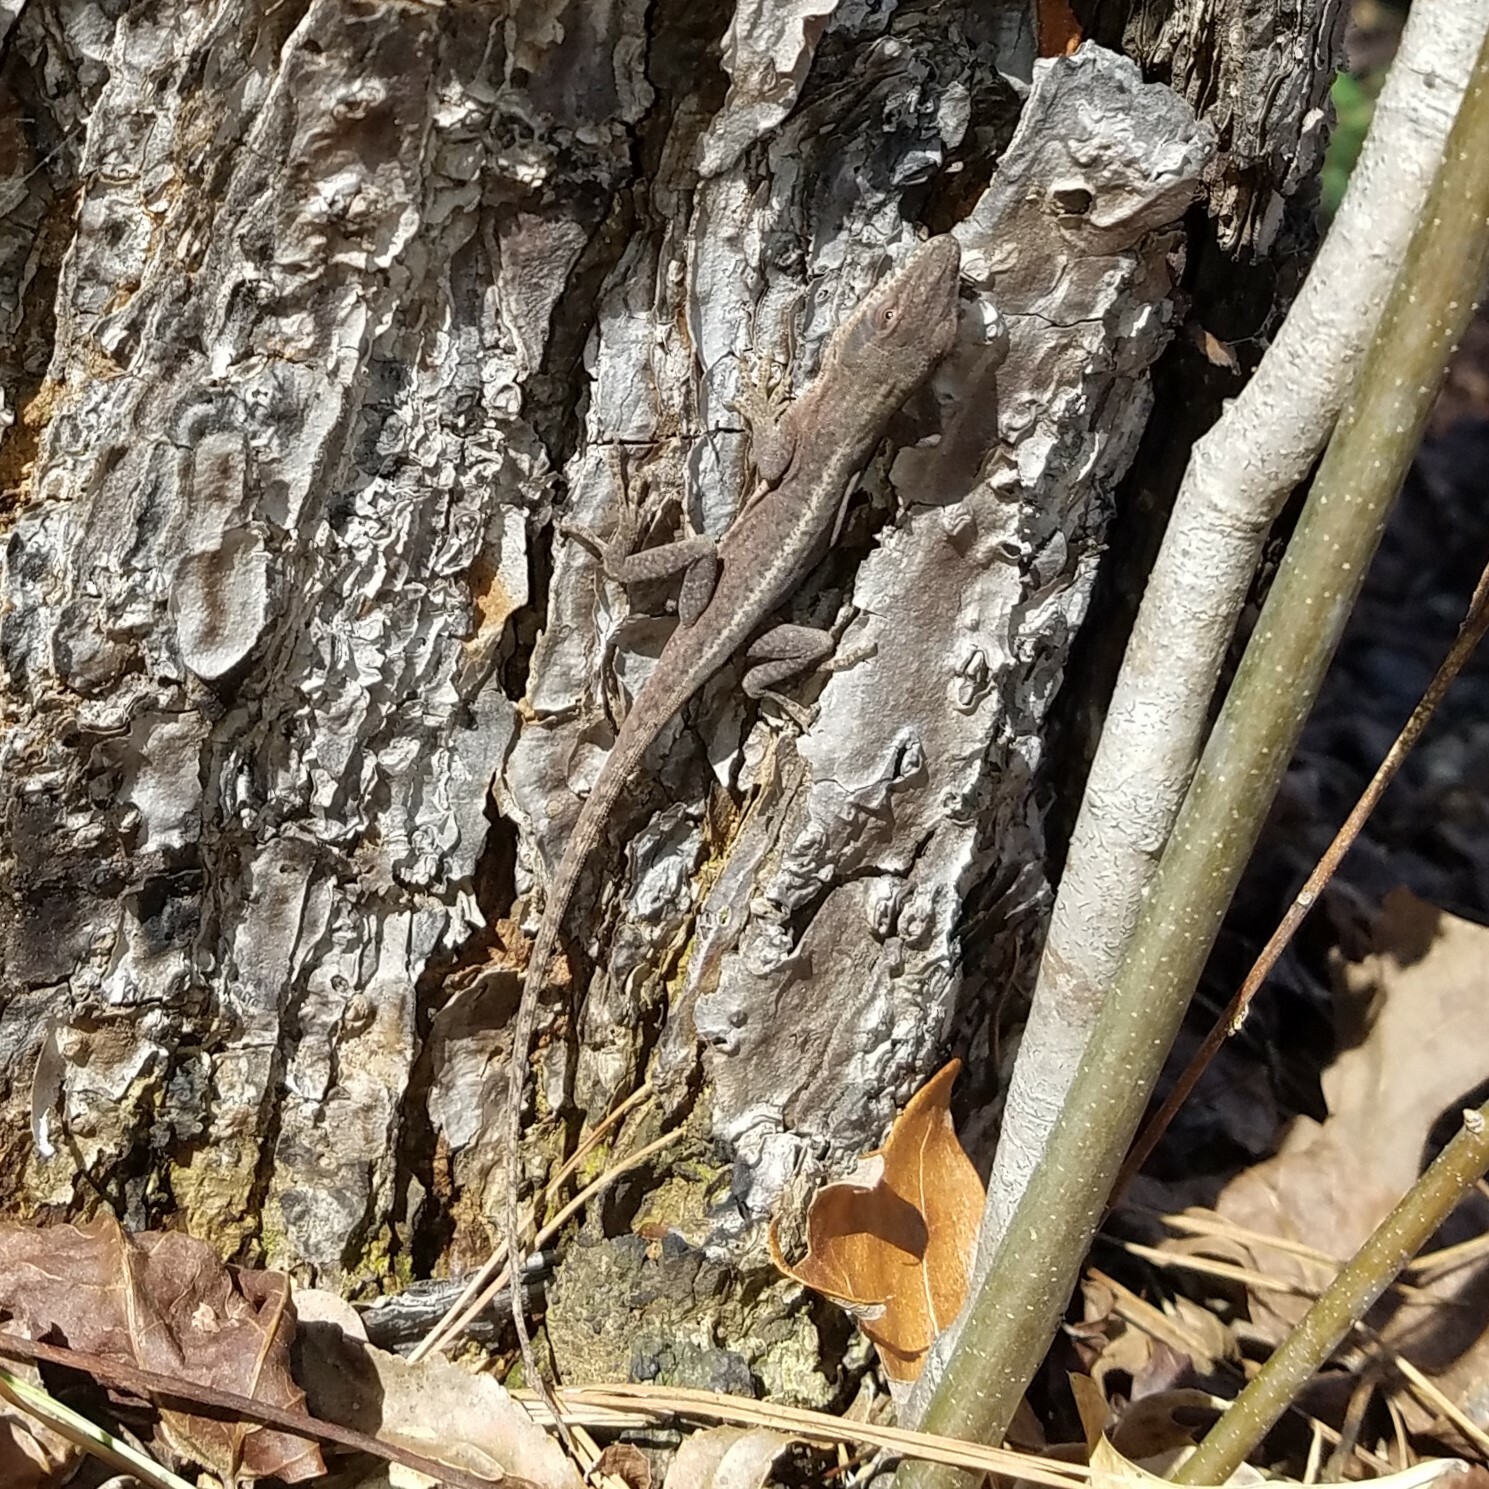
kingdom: Animalia
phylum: Chordata
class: Squamata
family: Dactyloidae
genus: Anolis
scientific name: Anolis carolinensis
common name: Green anole
